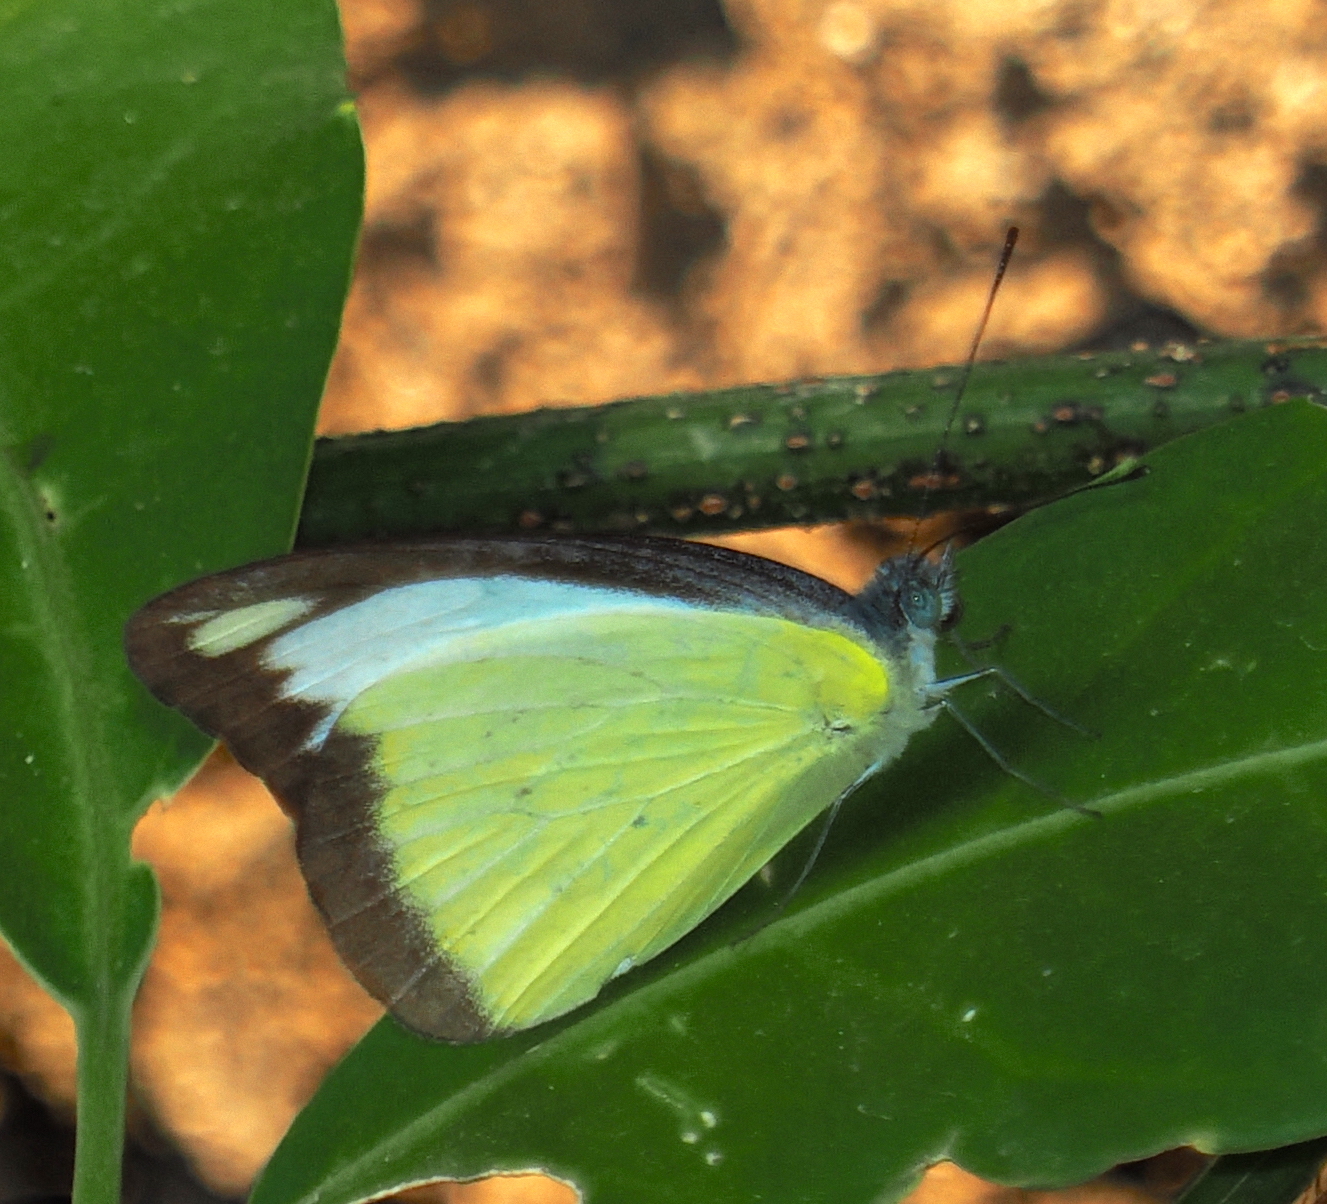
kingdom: Animalia
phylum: Arthropoda
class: Insecta
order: Lepidoptera
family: Pieridae
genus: Appias
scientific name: Appias lyncida
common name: Chocolate albatross
